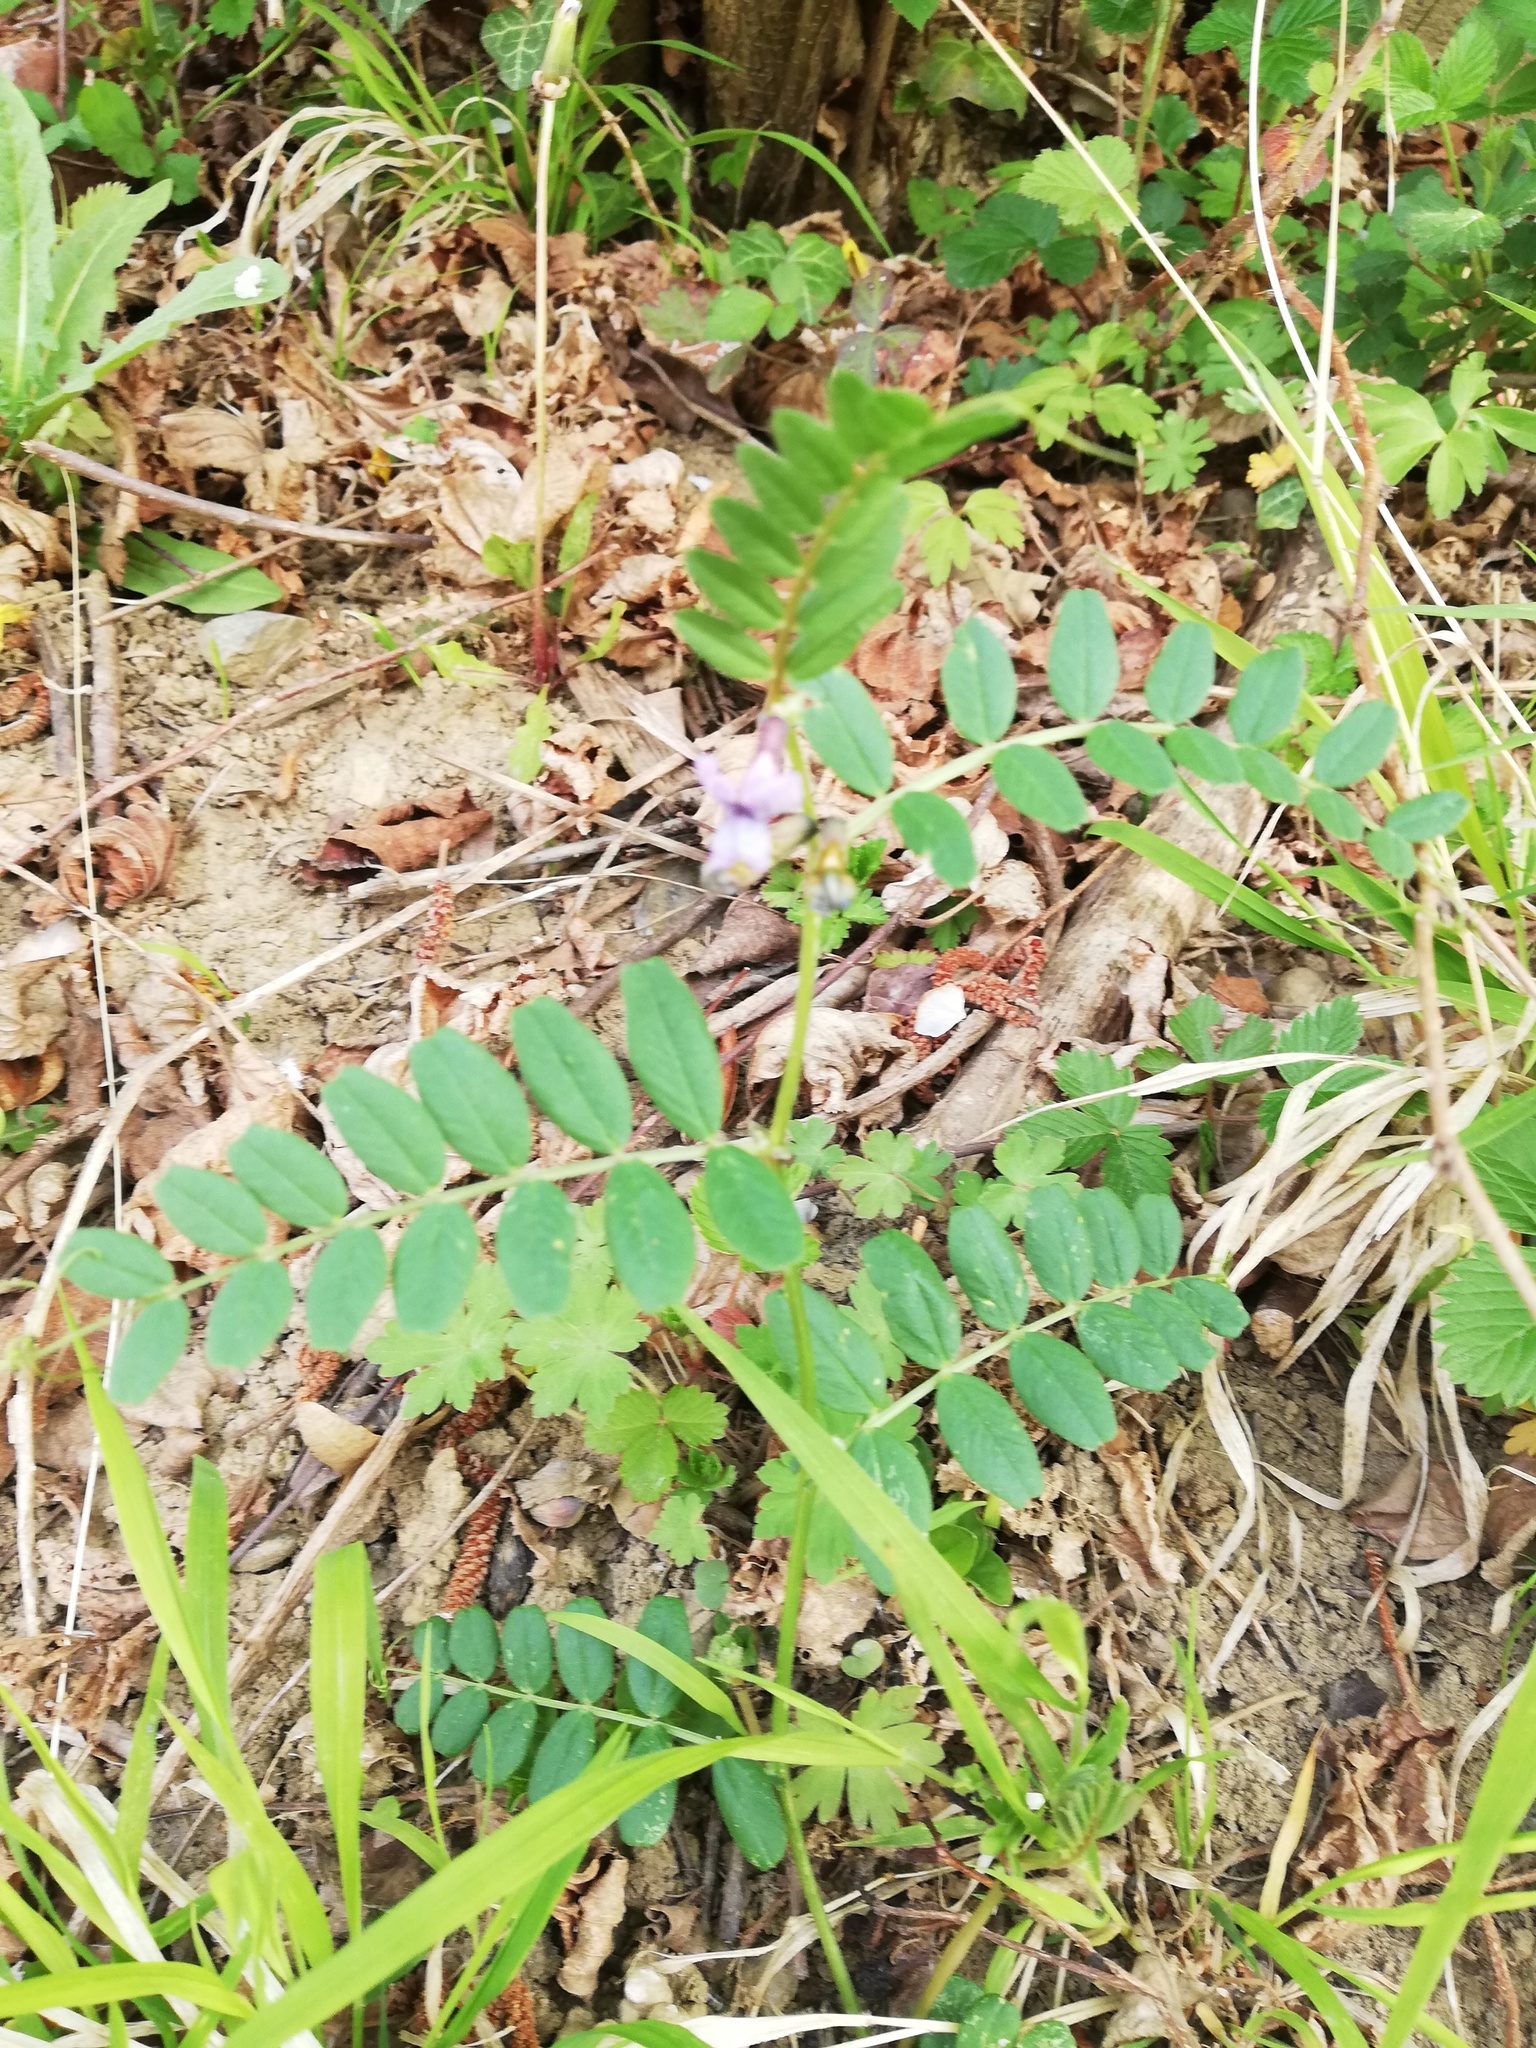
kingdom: Plantae
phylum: Tracheophyta
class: Magnoliopsida
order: Fabales
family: Fabaceae
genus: Vicia
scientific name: Vicia sepium
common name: Bush vetch
